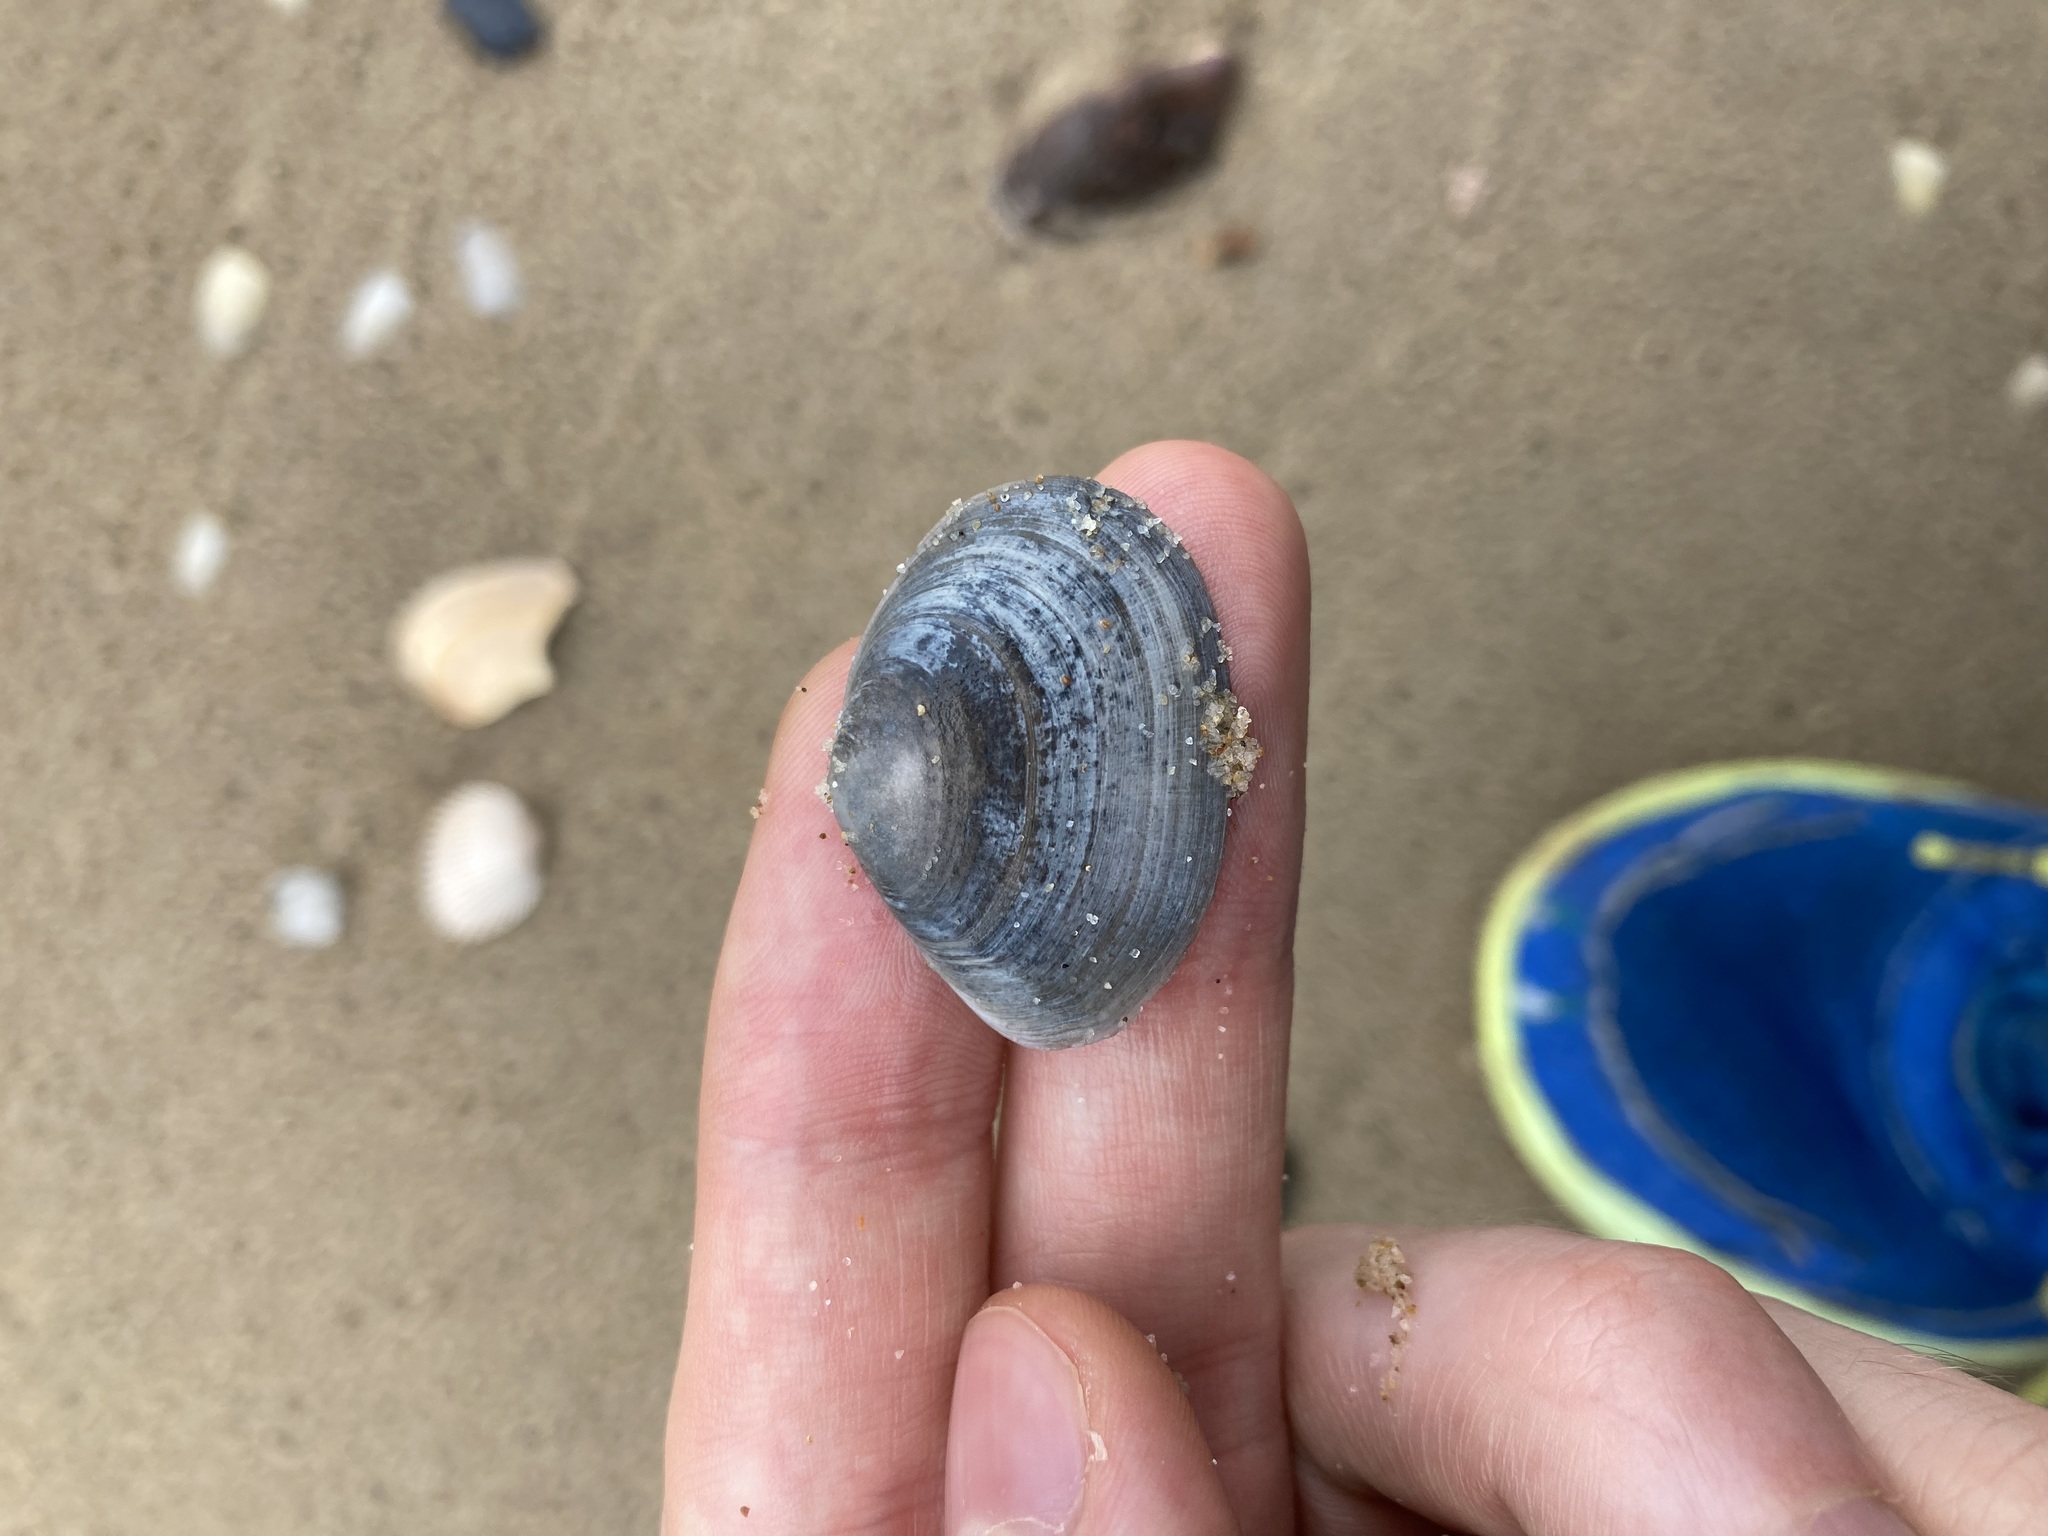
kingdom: Animalia
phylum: Mollusca
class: Bivalvia
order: Cardiida
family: Tellinidae
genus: Macomona
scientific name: Macomona deltoidalis
